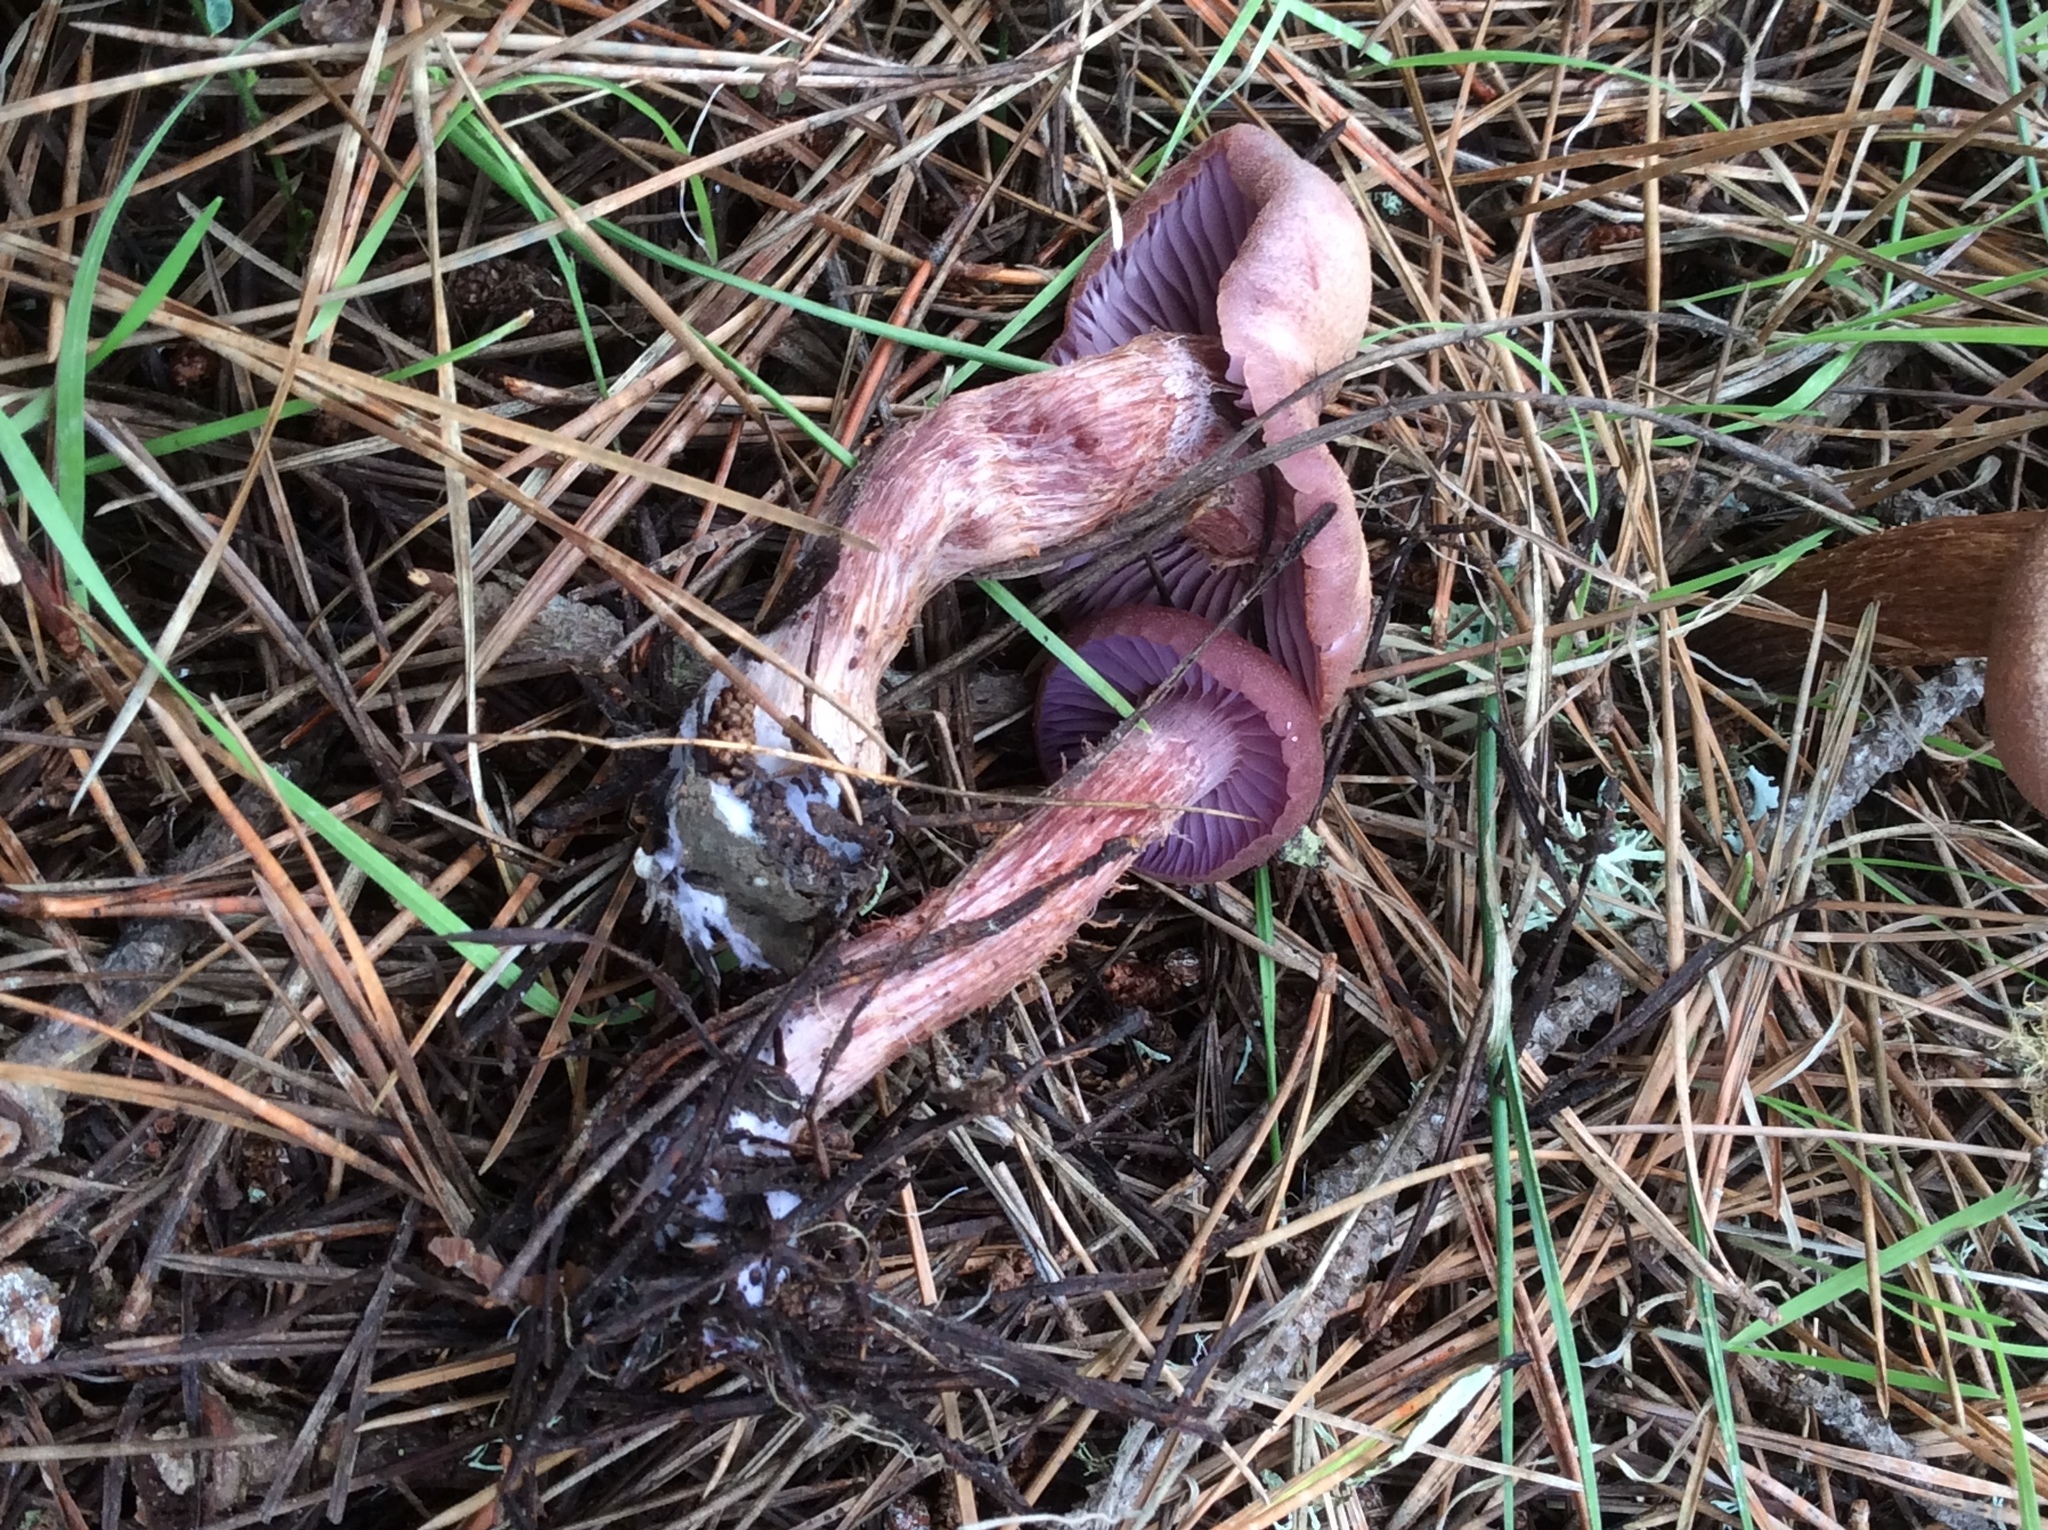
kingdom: Fungi
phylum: Basidiomycota
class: Agaricomycetes
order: Agaricales
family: Hydnangiaceae
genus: Laccaria
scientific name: Laccaria amethysteo-occidentalis
